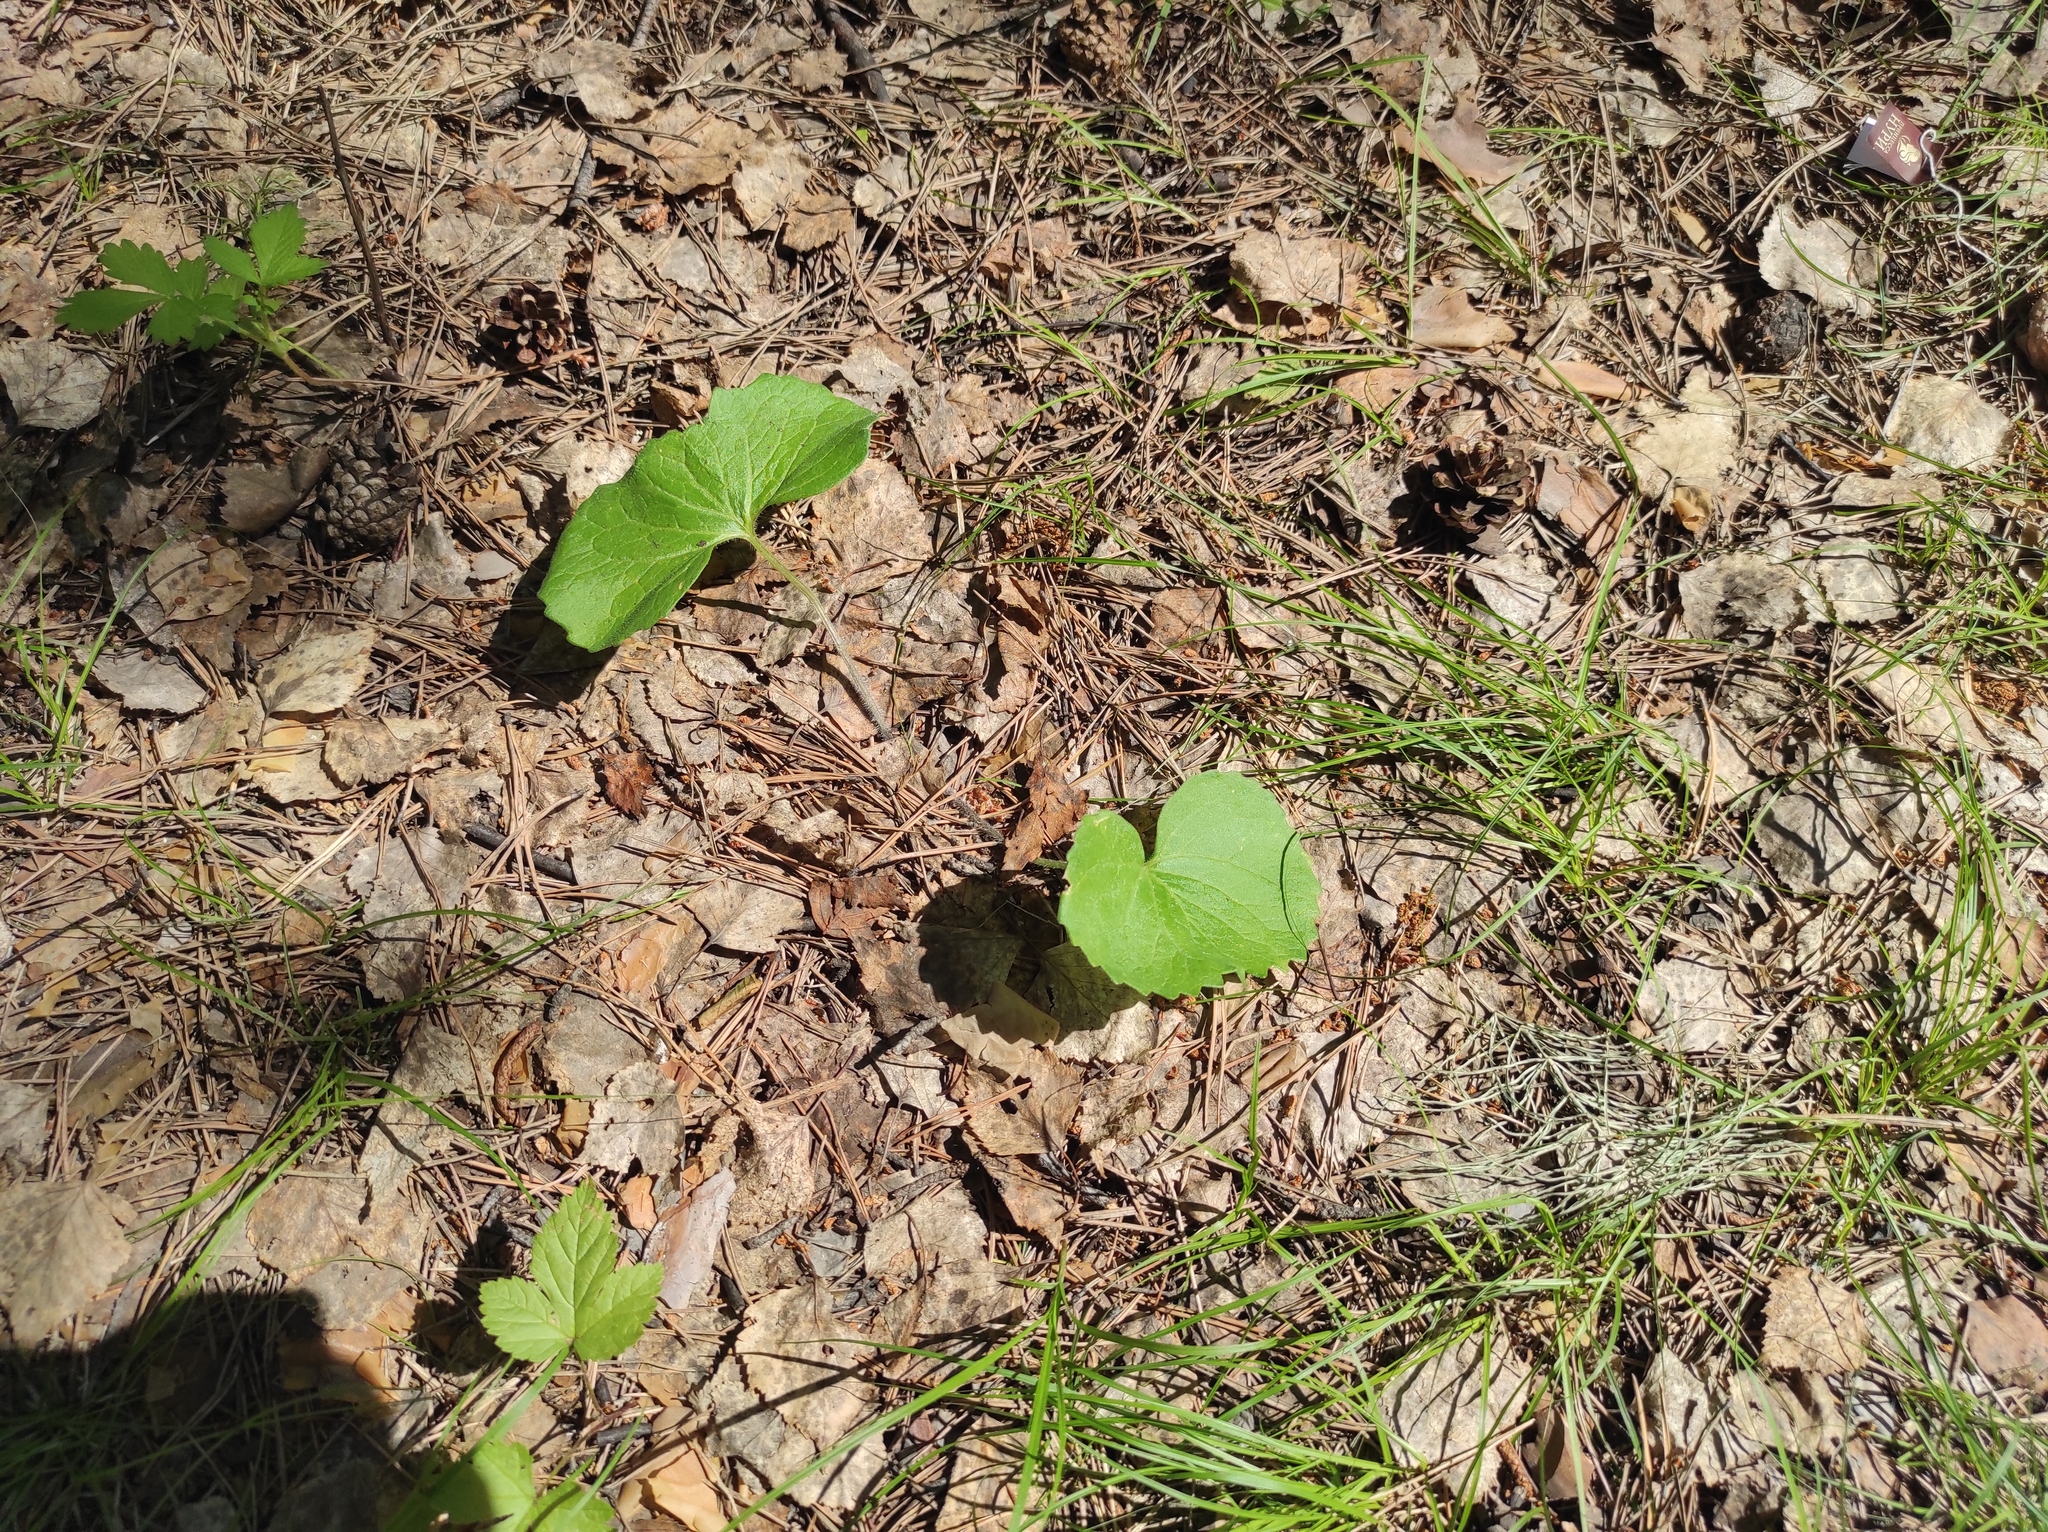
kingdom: Plantae
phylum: Tracheophyta
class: Magnoliopsida
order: Asterales
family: Asteraceae
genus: Tussilago
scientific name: Tussilago farfara
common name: Coltsfoot
